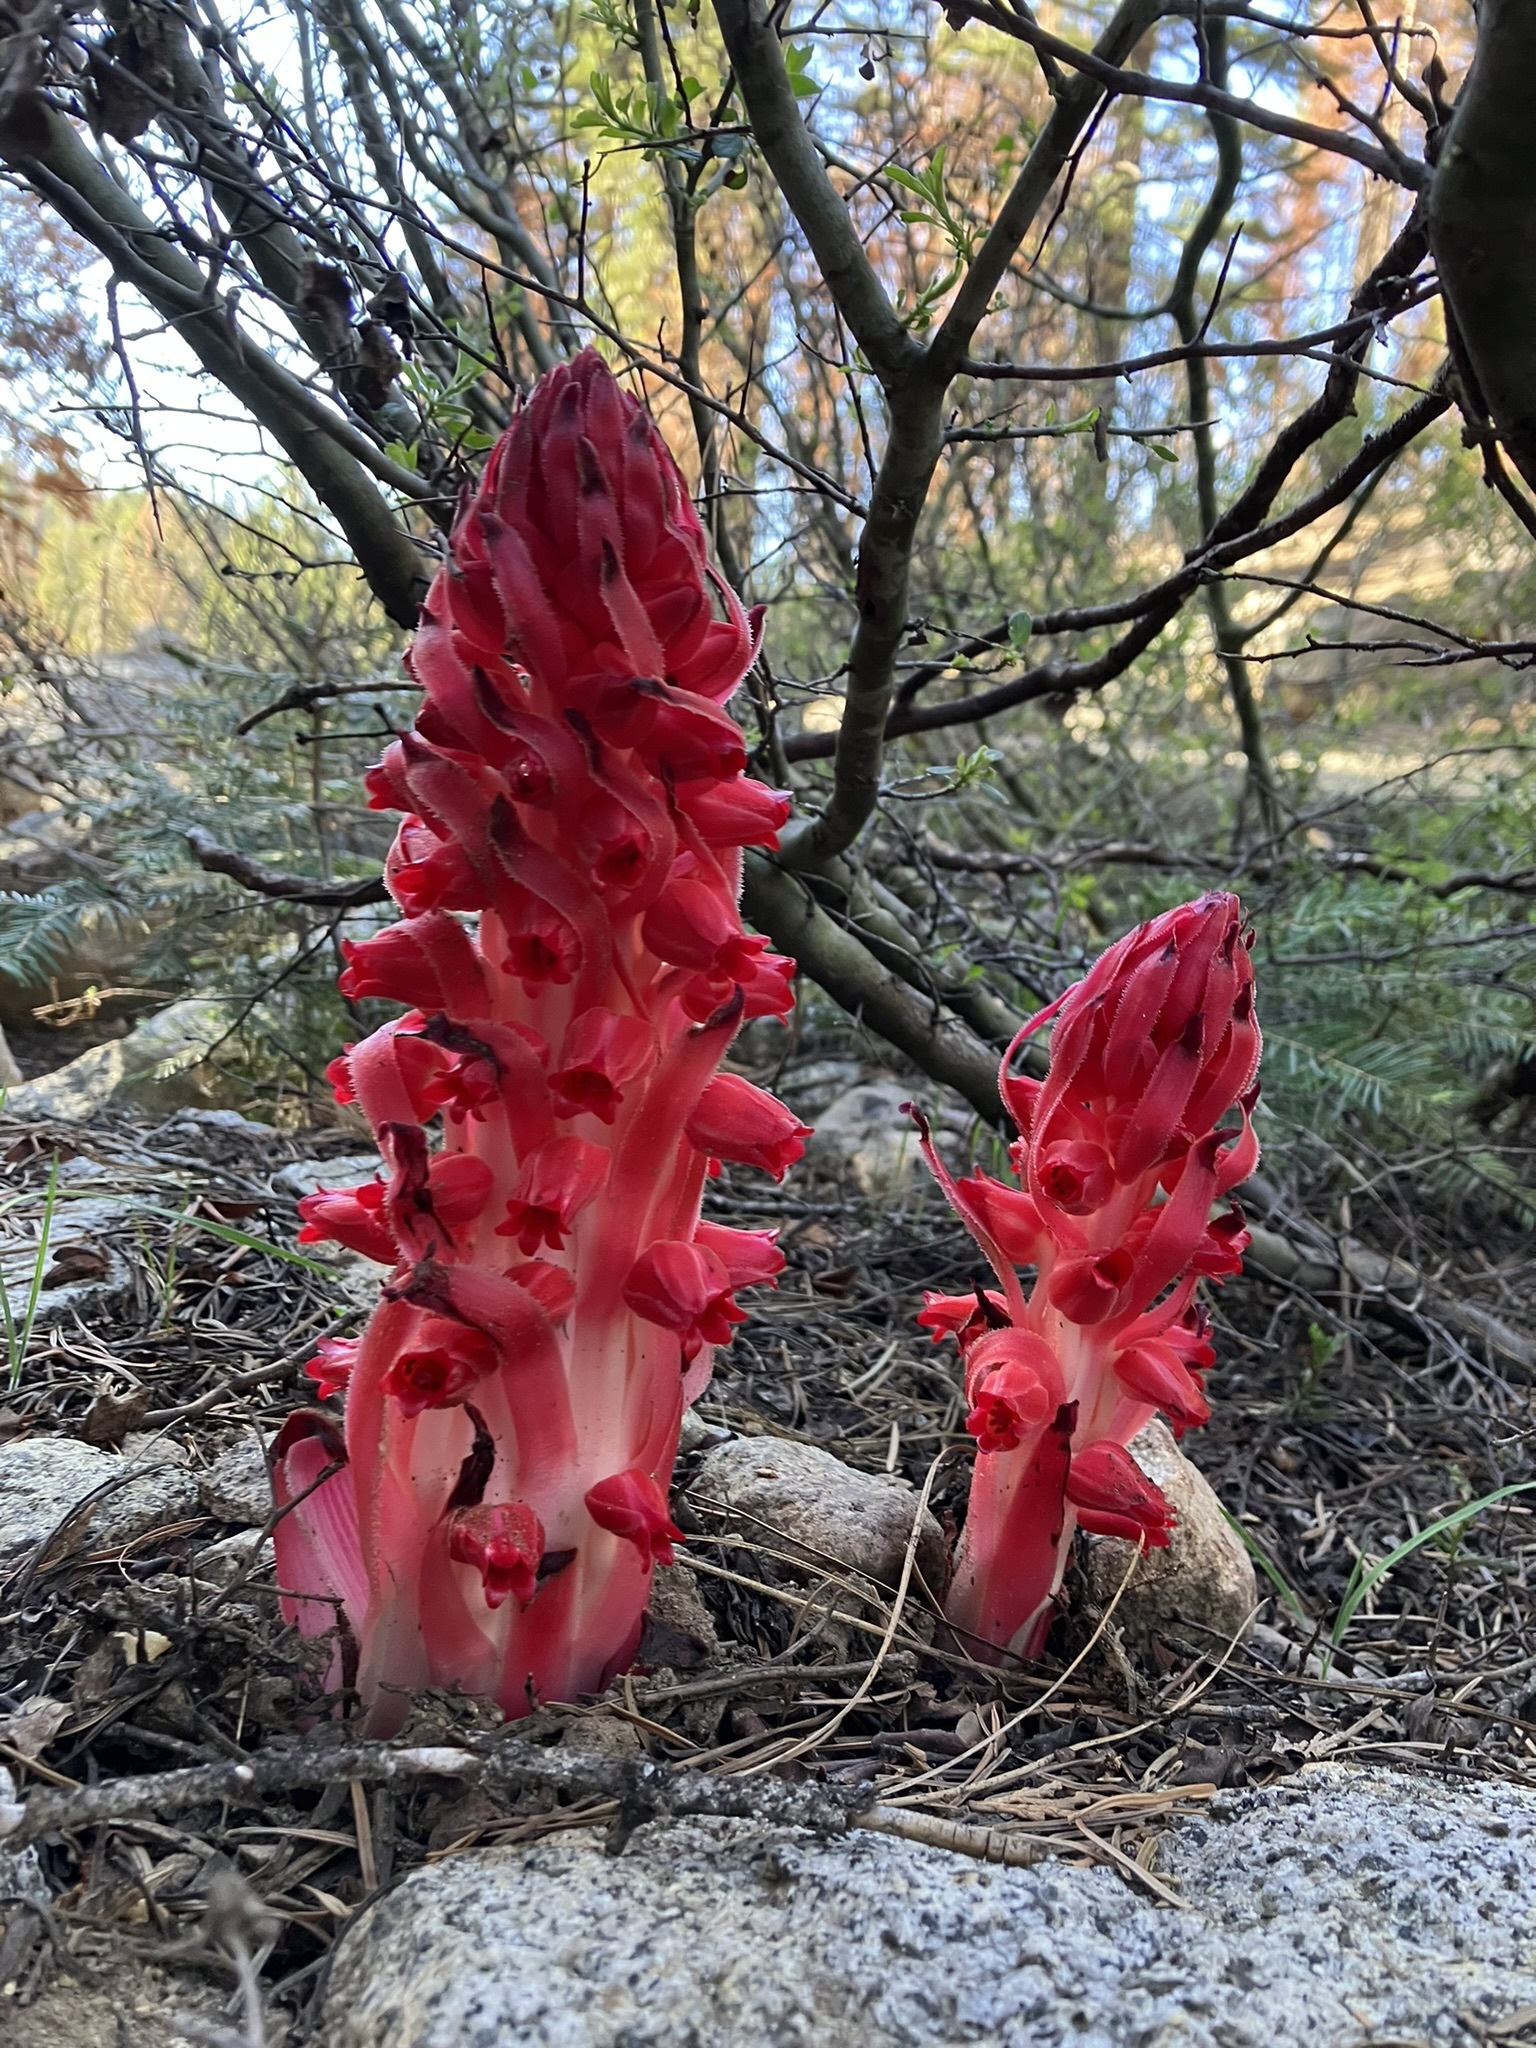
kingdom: Plantae
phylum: Tracheophyta
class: Magnoliopsida
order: Ericales
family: Ericaceae
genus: Sarcodes
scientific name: Sarcodes sanguinea
